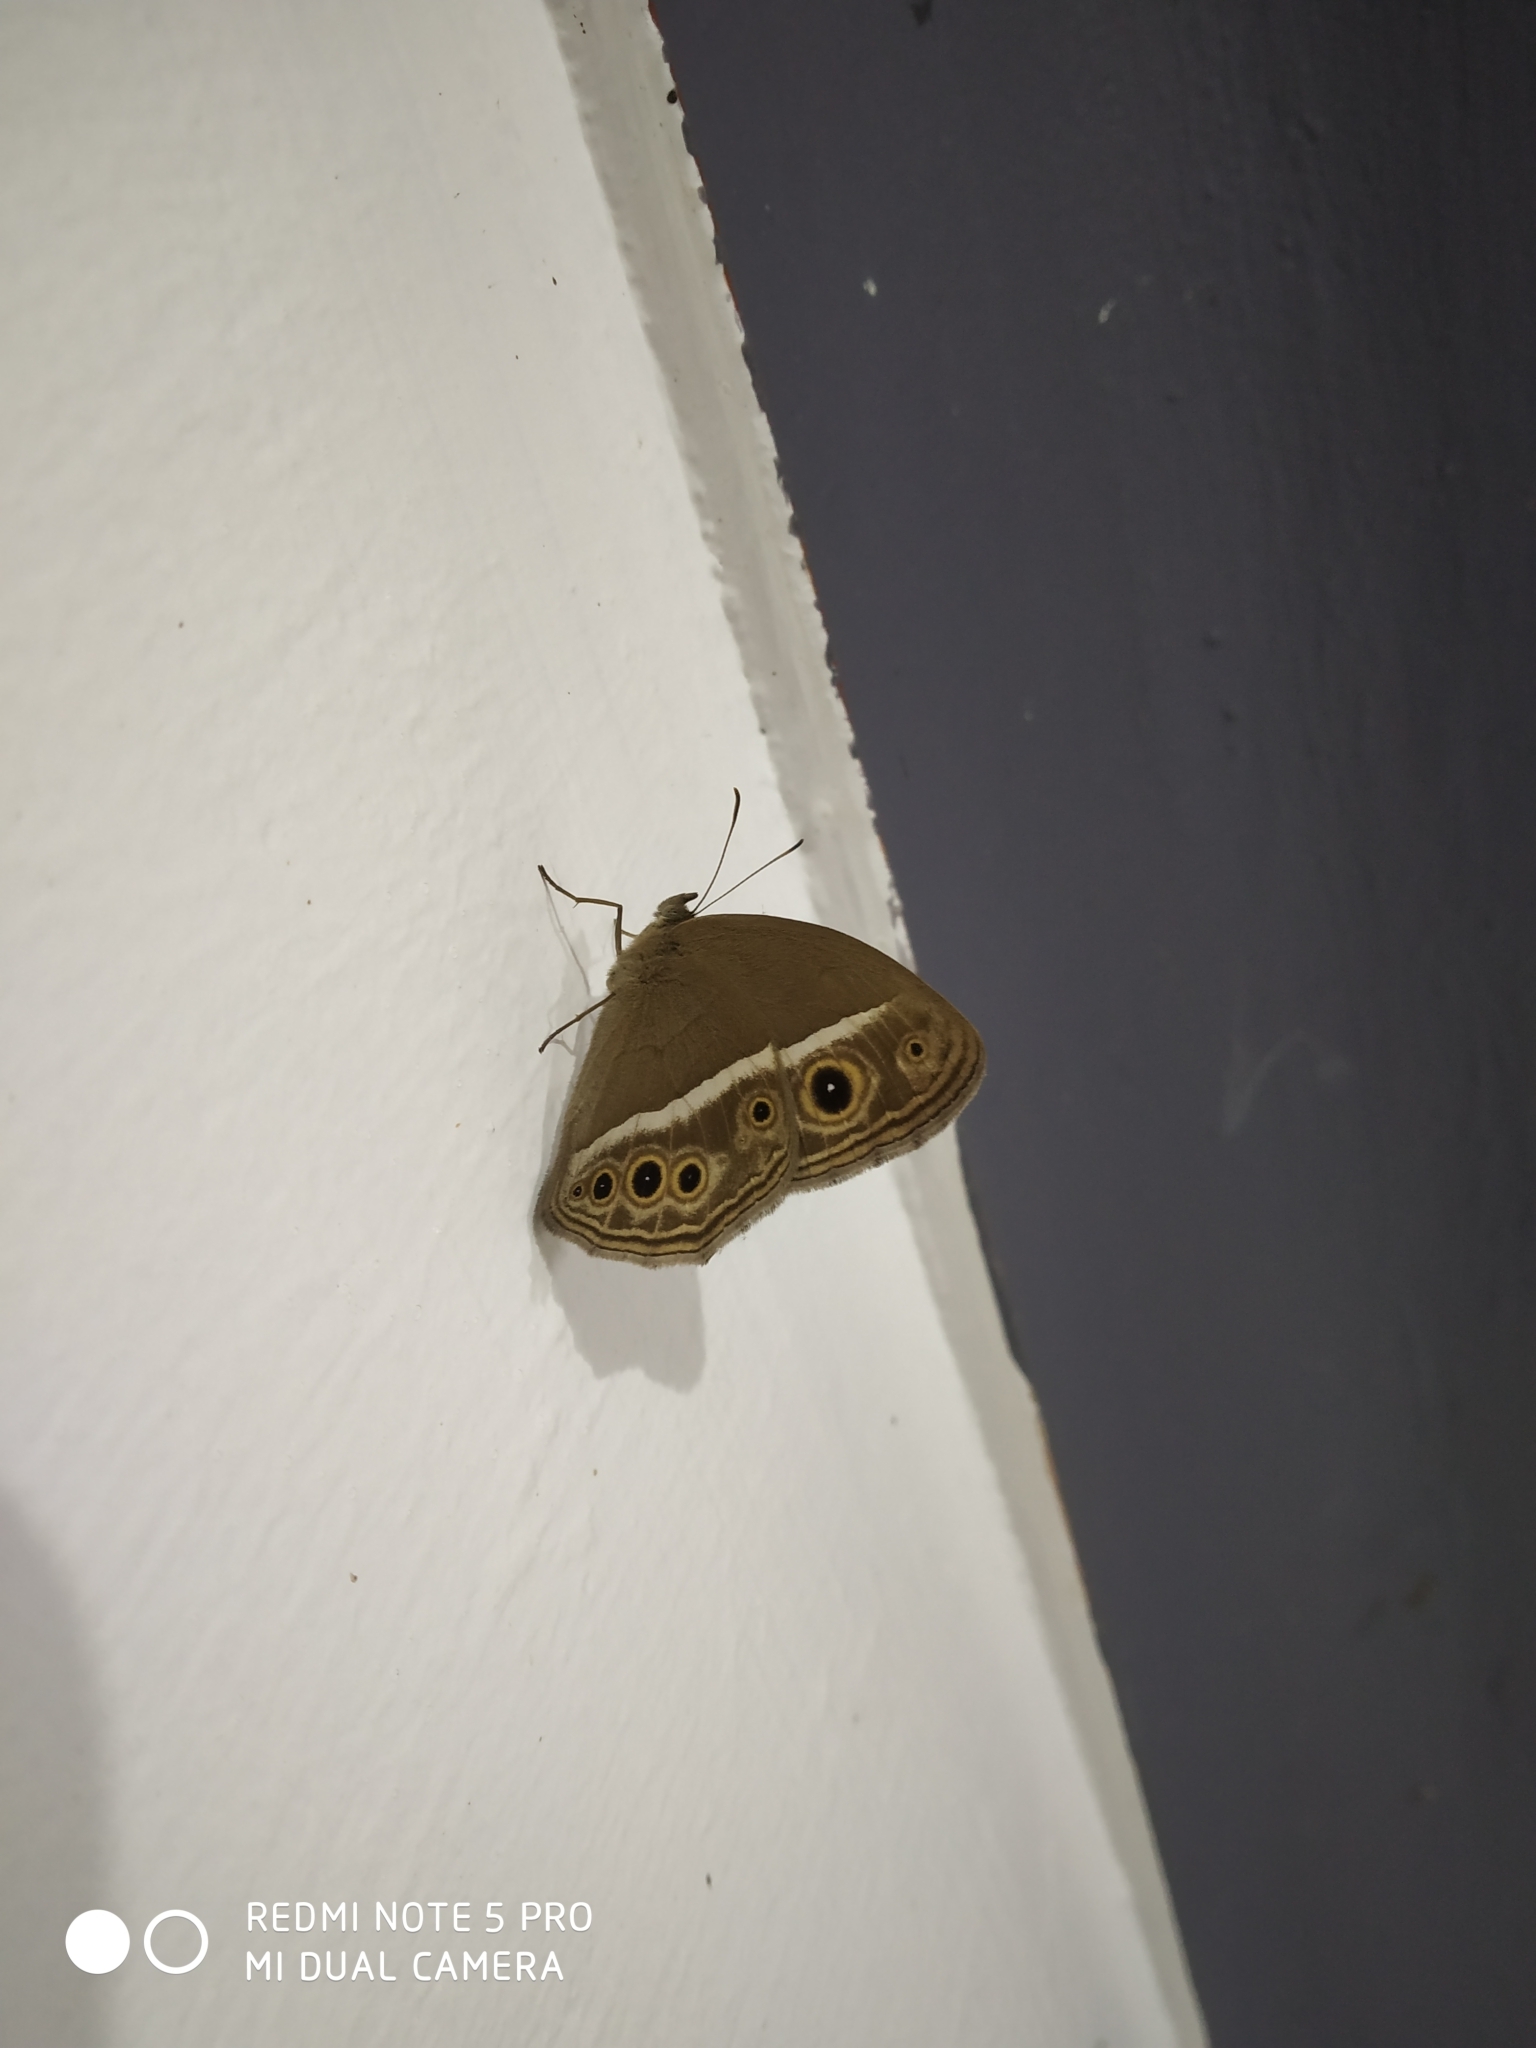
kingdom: Animalia
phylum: Arthropoda
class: Insecta
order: Lepidoptera
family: Nymphalidae
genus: Mycalesis
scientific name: Mycalesis mineus
